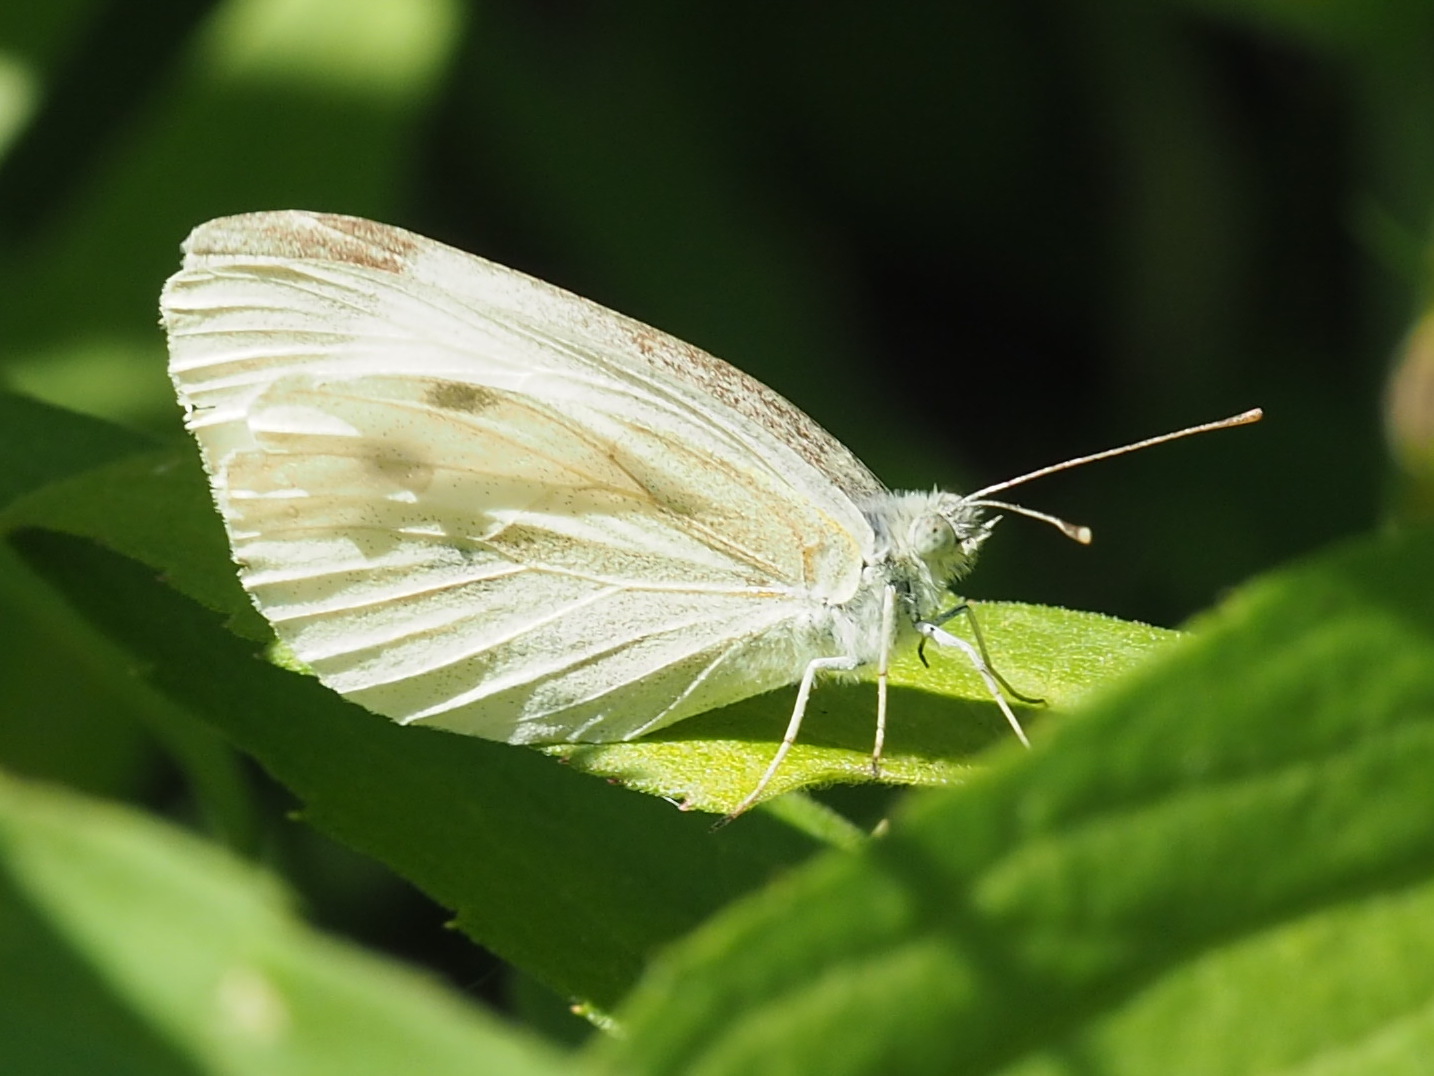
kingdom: Animalia
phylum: Arthropoda
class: Insecta
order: Lepidoptera
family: Pieridae
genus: Pieris
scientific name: Pieris rapae
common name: Small white
